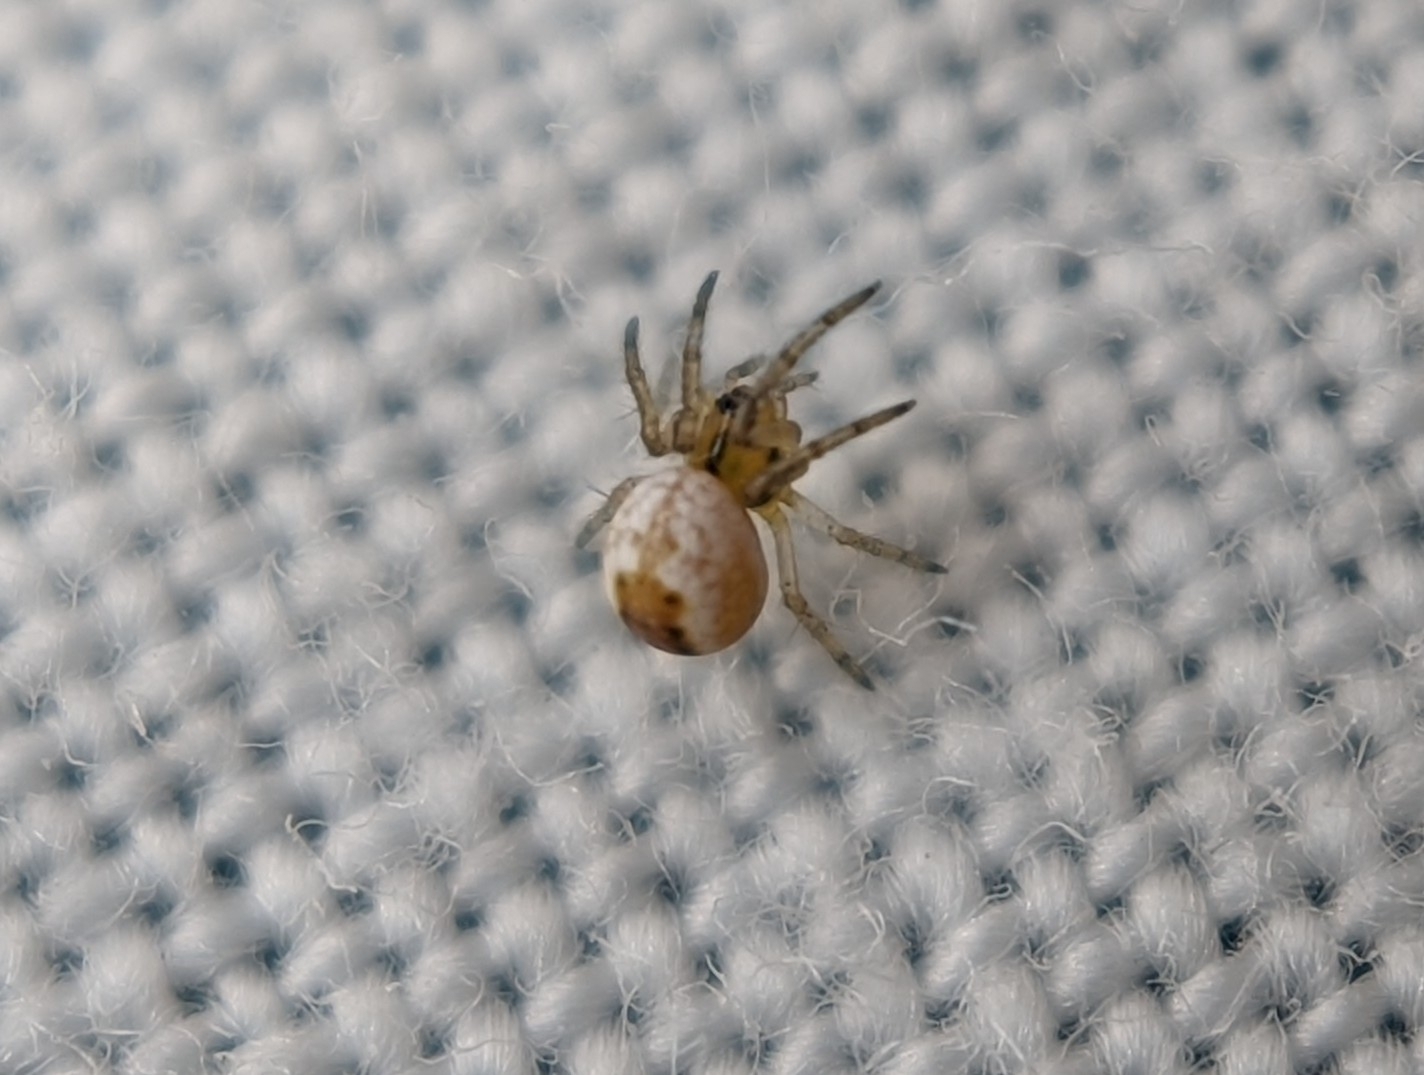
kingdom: Animalia
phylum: Arthropoda
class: Arachnida
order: Araneae
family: Araneidae
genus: Mangora
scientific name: Mangora acalypha
